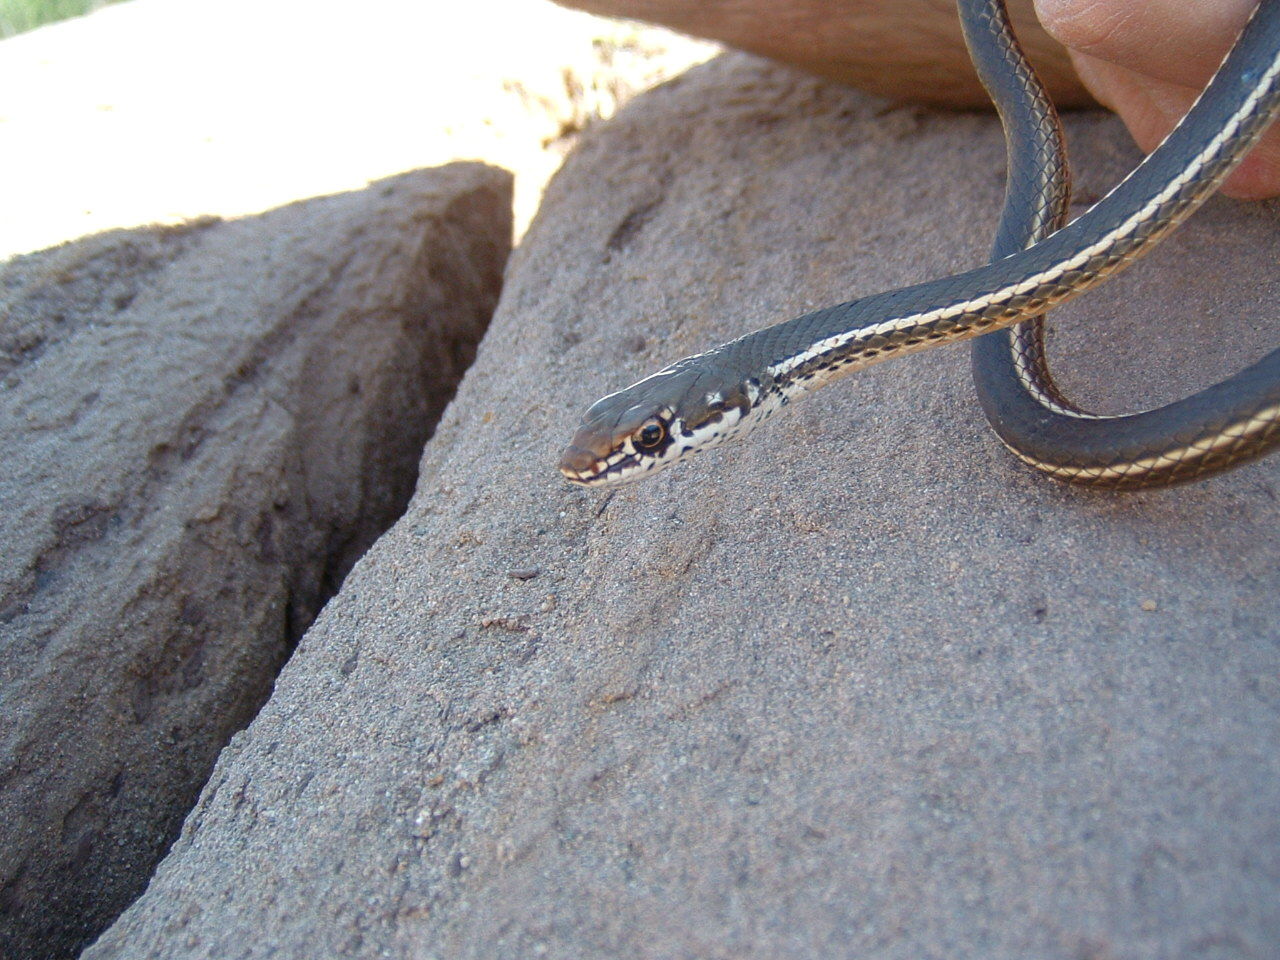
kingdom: Animalia
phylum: Chordata
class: Squamata
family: Colubridae
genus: Masticophis
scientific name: Masticophis lateralis
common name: Striped racer
